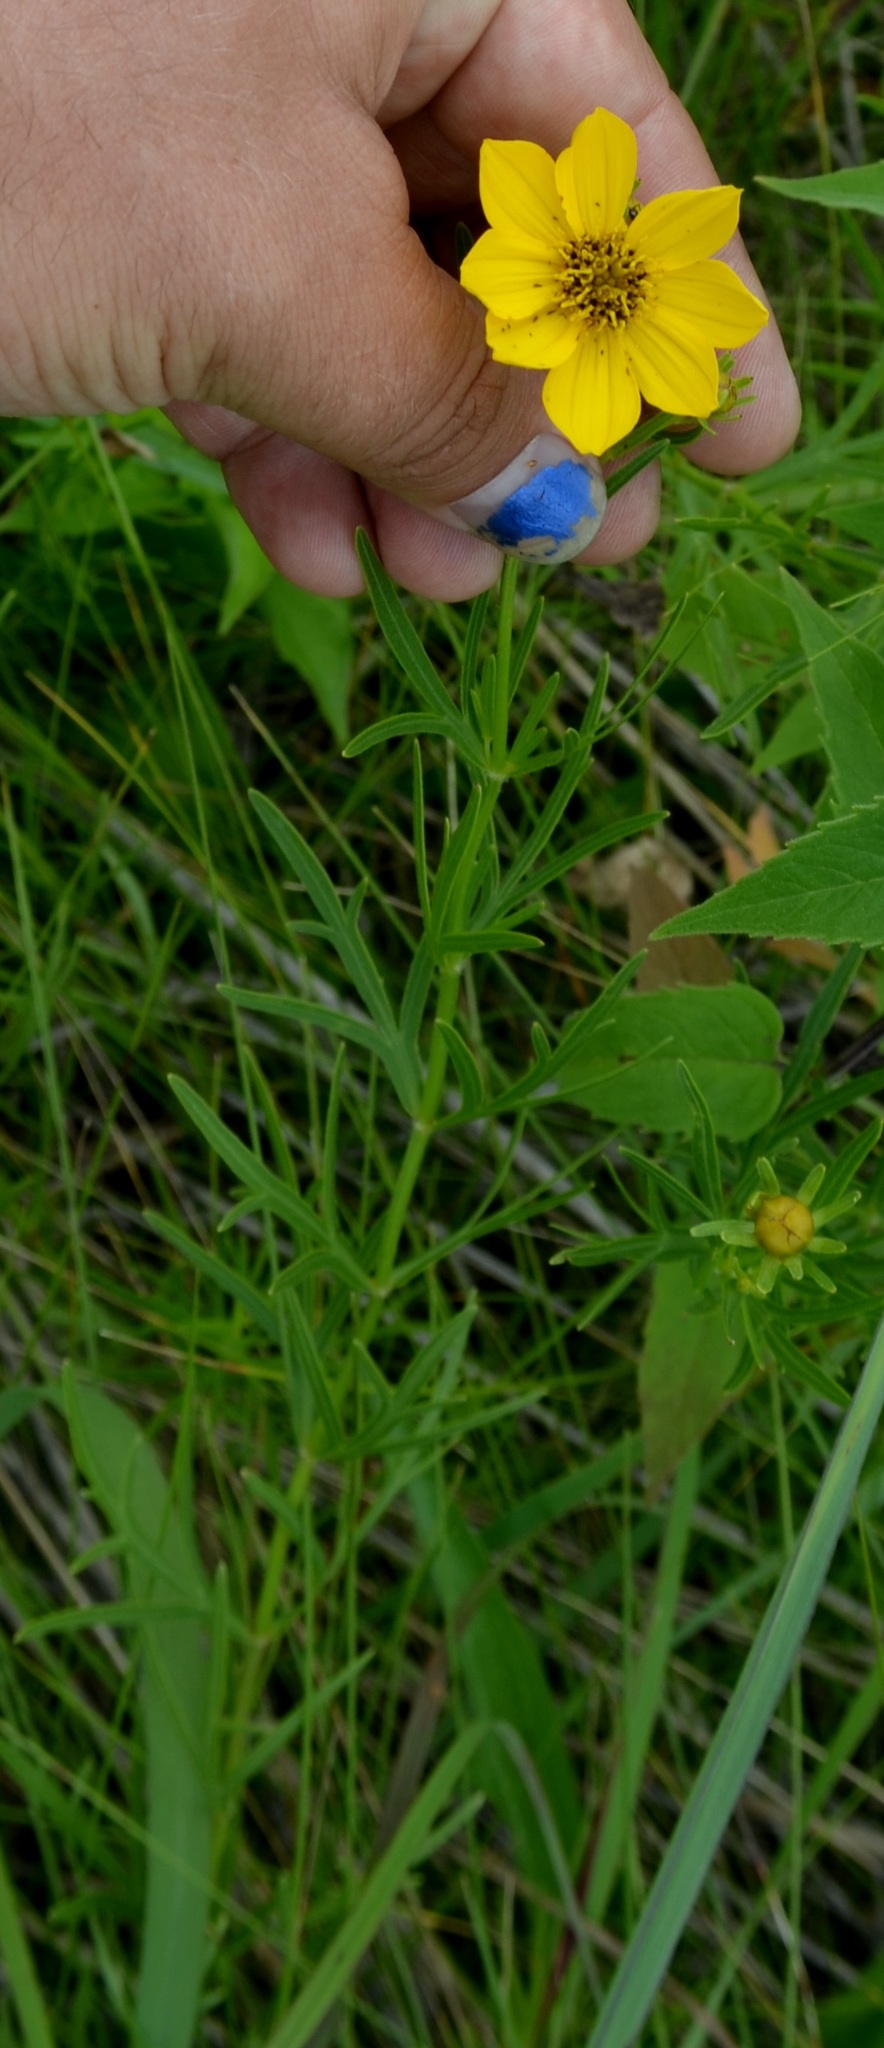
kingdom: Plantae
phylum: Tracheophyta
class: Magnoliopsida
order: Asterales
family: Asteraceae
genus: Coreopsis
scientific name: Coreopsis palmata
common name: Prairie coreopsis
